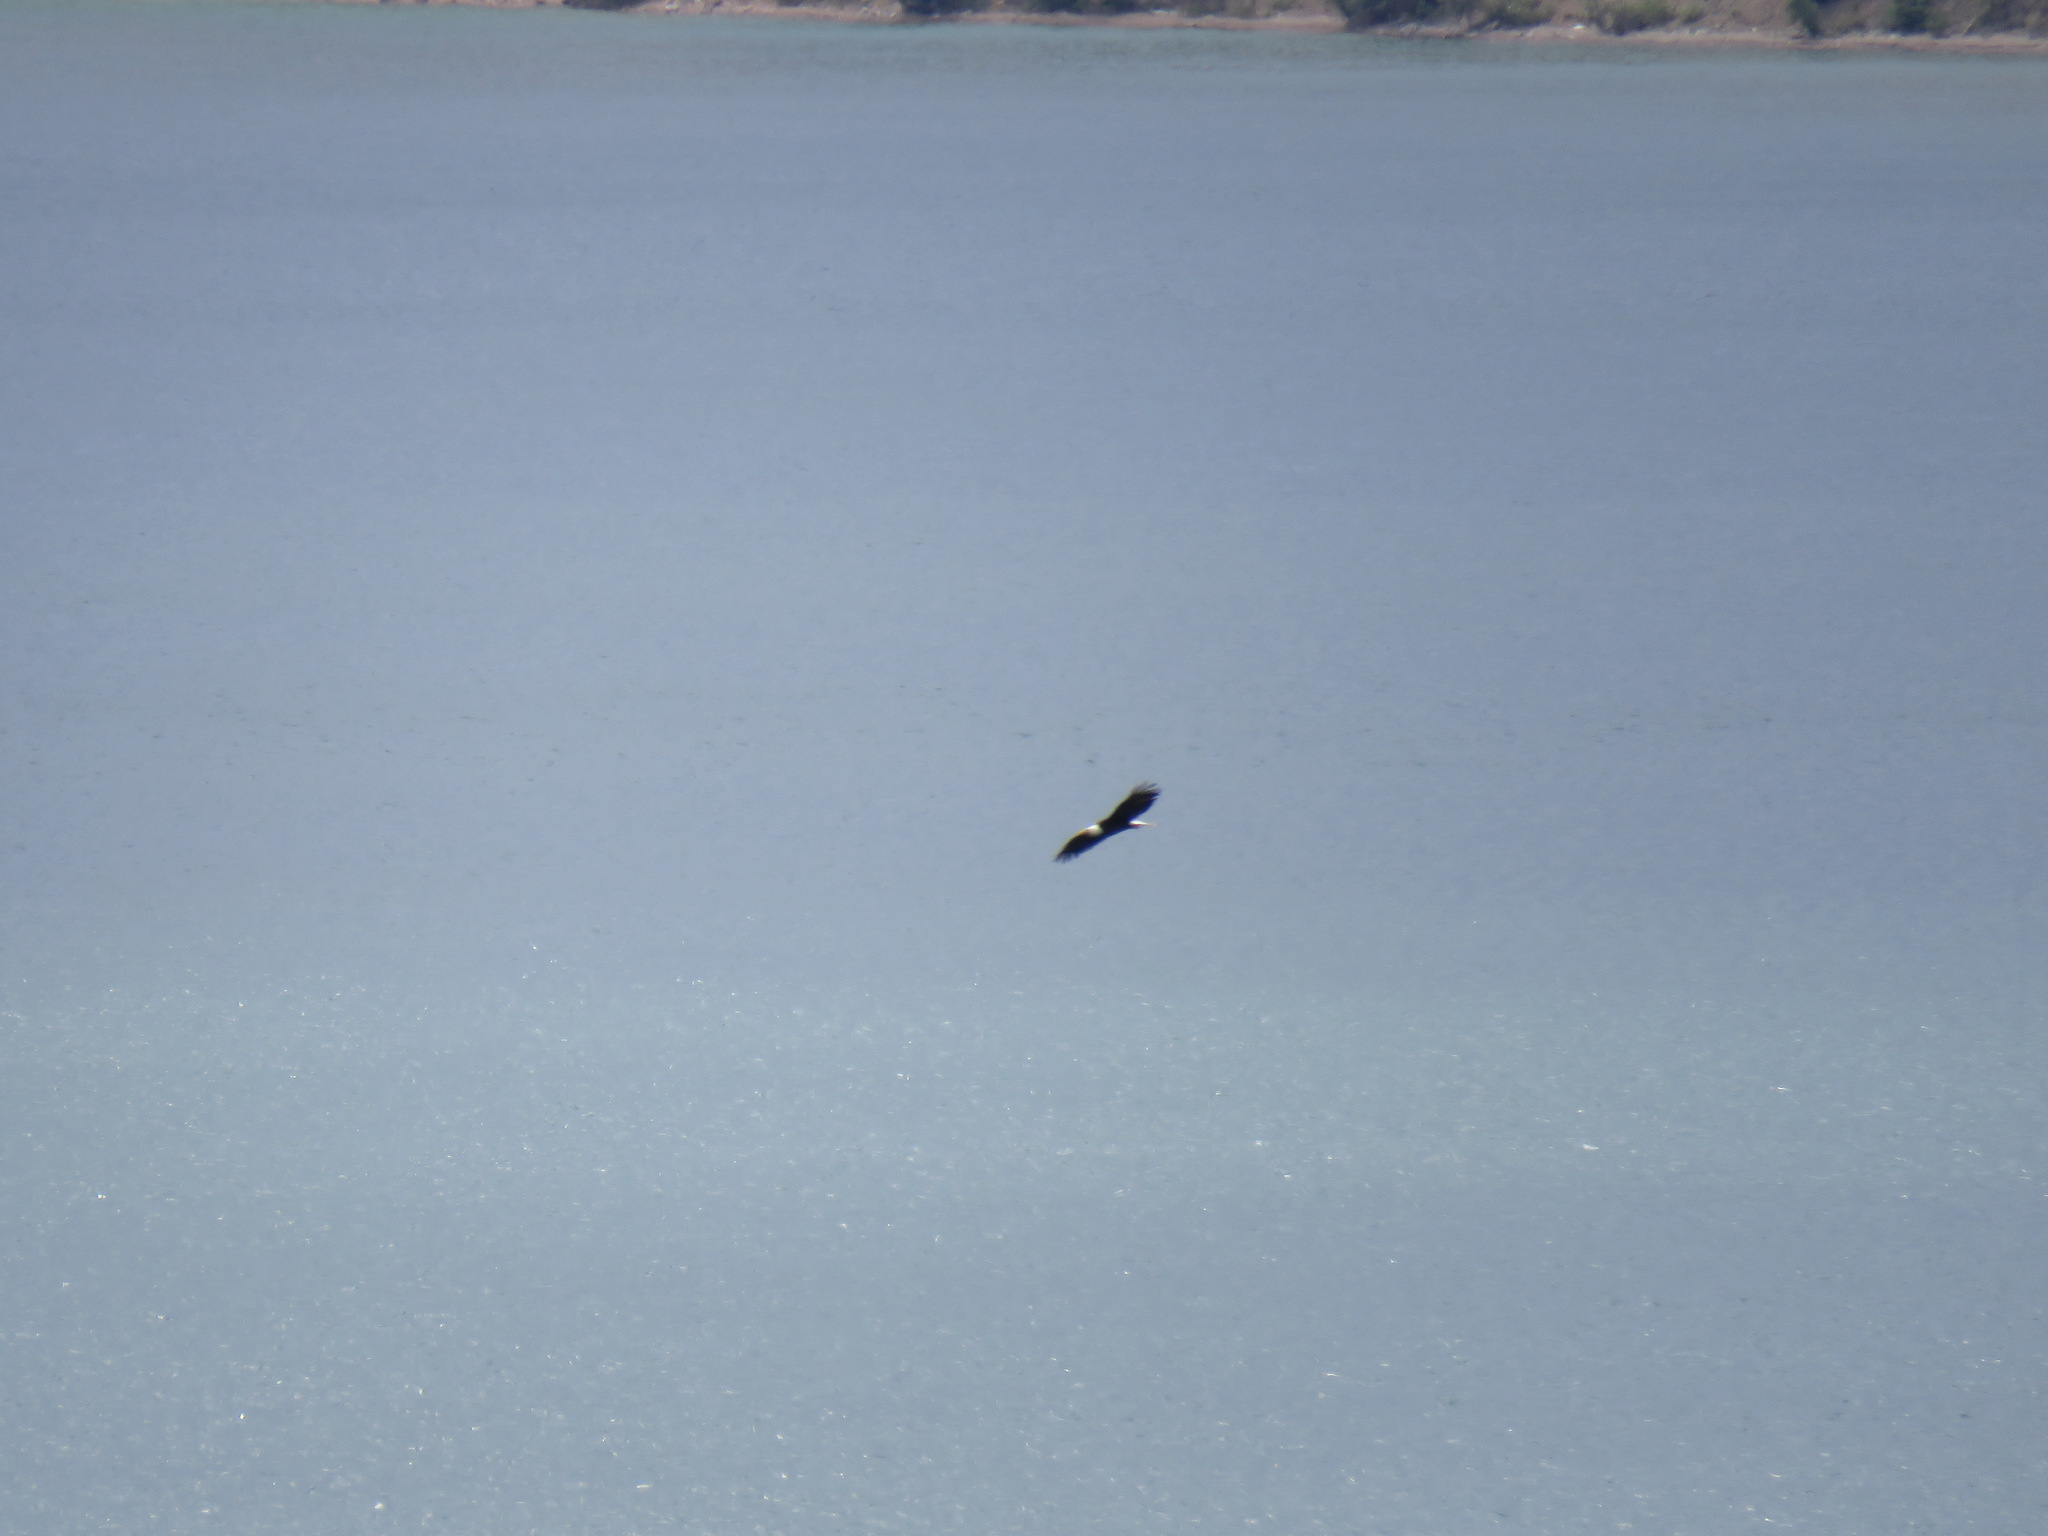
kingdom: Animalia
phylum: Chordata
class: Aves
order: Accipitriformes
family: Accipitridae
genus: Haliaeetus
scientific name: Haliaeetus leucocephalus
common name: Bald eagle
